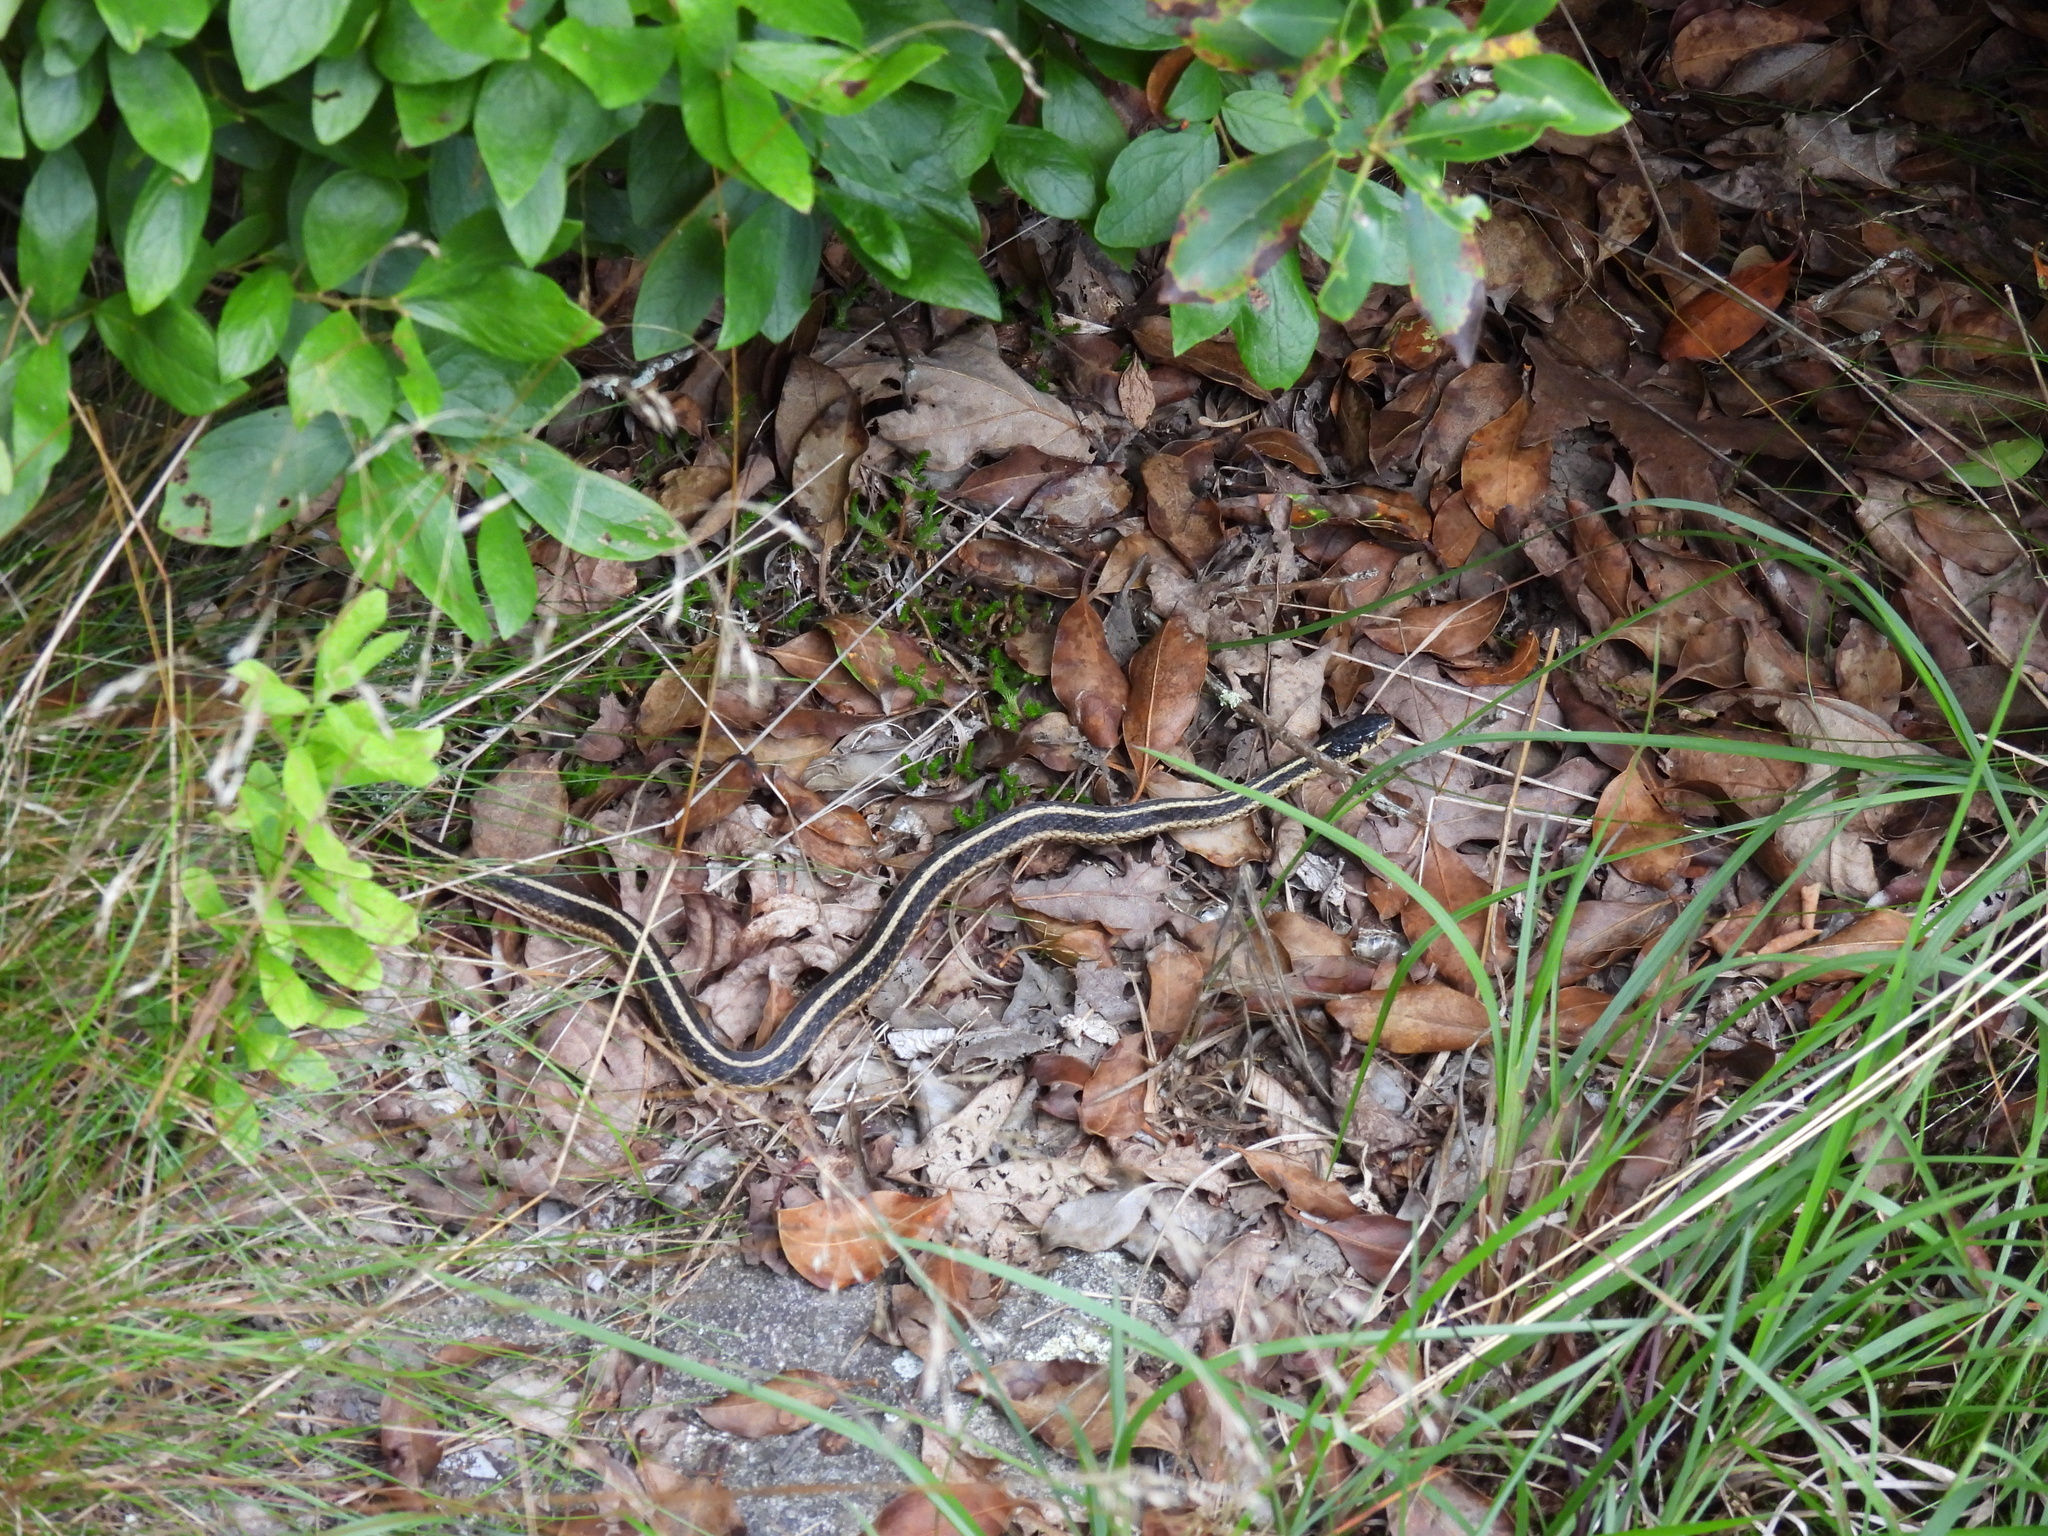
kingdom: Animalia
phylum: Chordata
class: Squamata
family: Colubridae
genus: Thamnophis
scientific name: Thamnophis sirtalis
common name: Common garter snake
